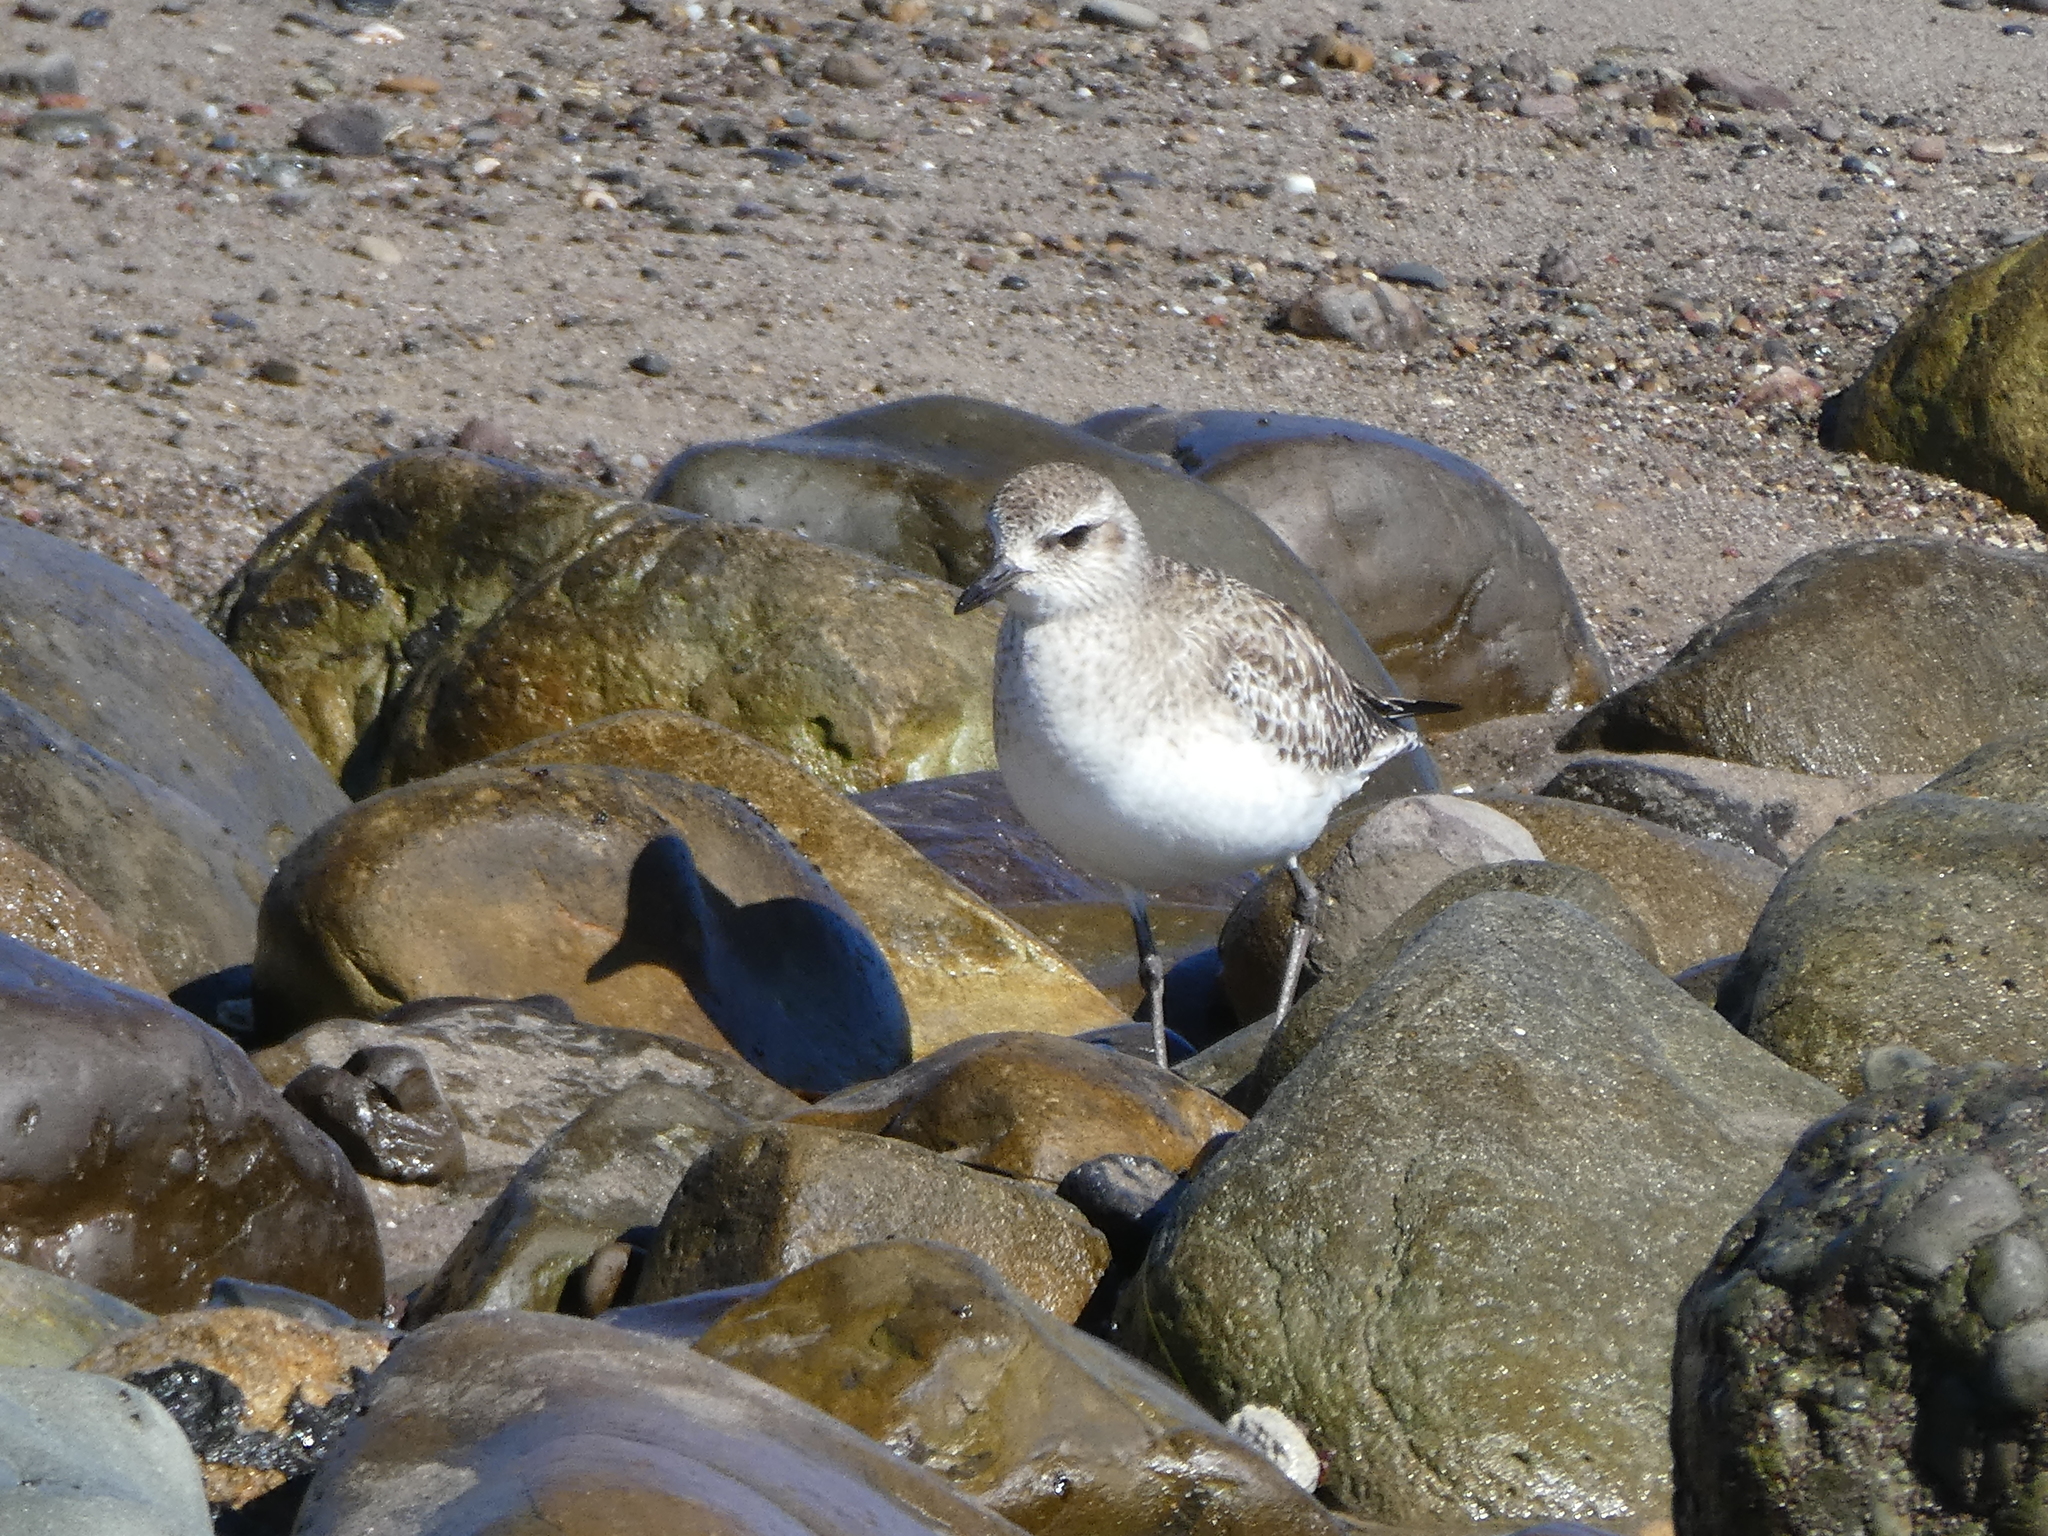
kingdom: Animalia
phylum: Chordata
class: Aves
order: Charadriiformes
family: Charadriidae
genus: Pluvialis
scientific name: Pluvialis squatarola
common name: Grey plover
